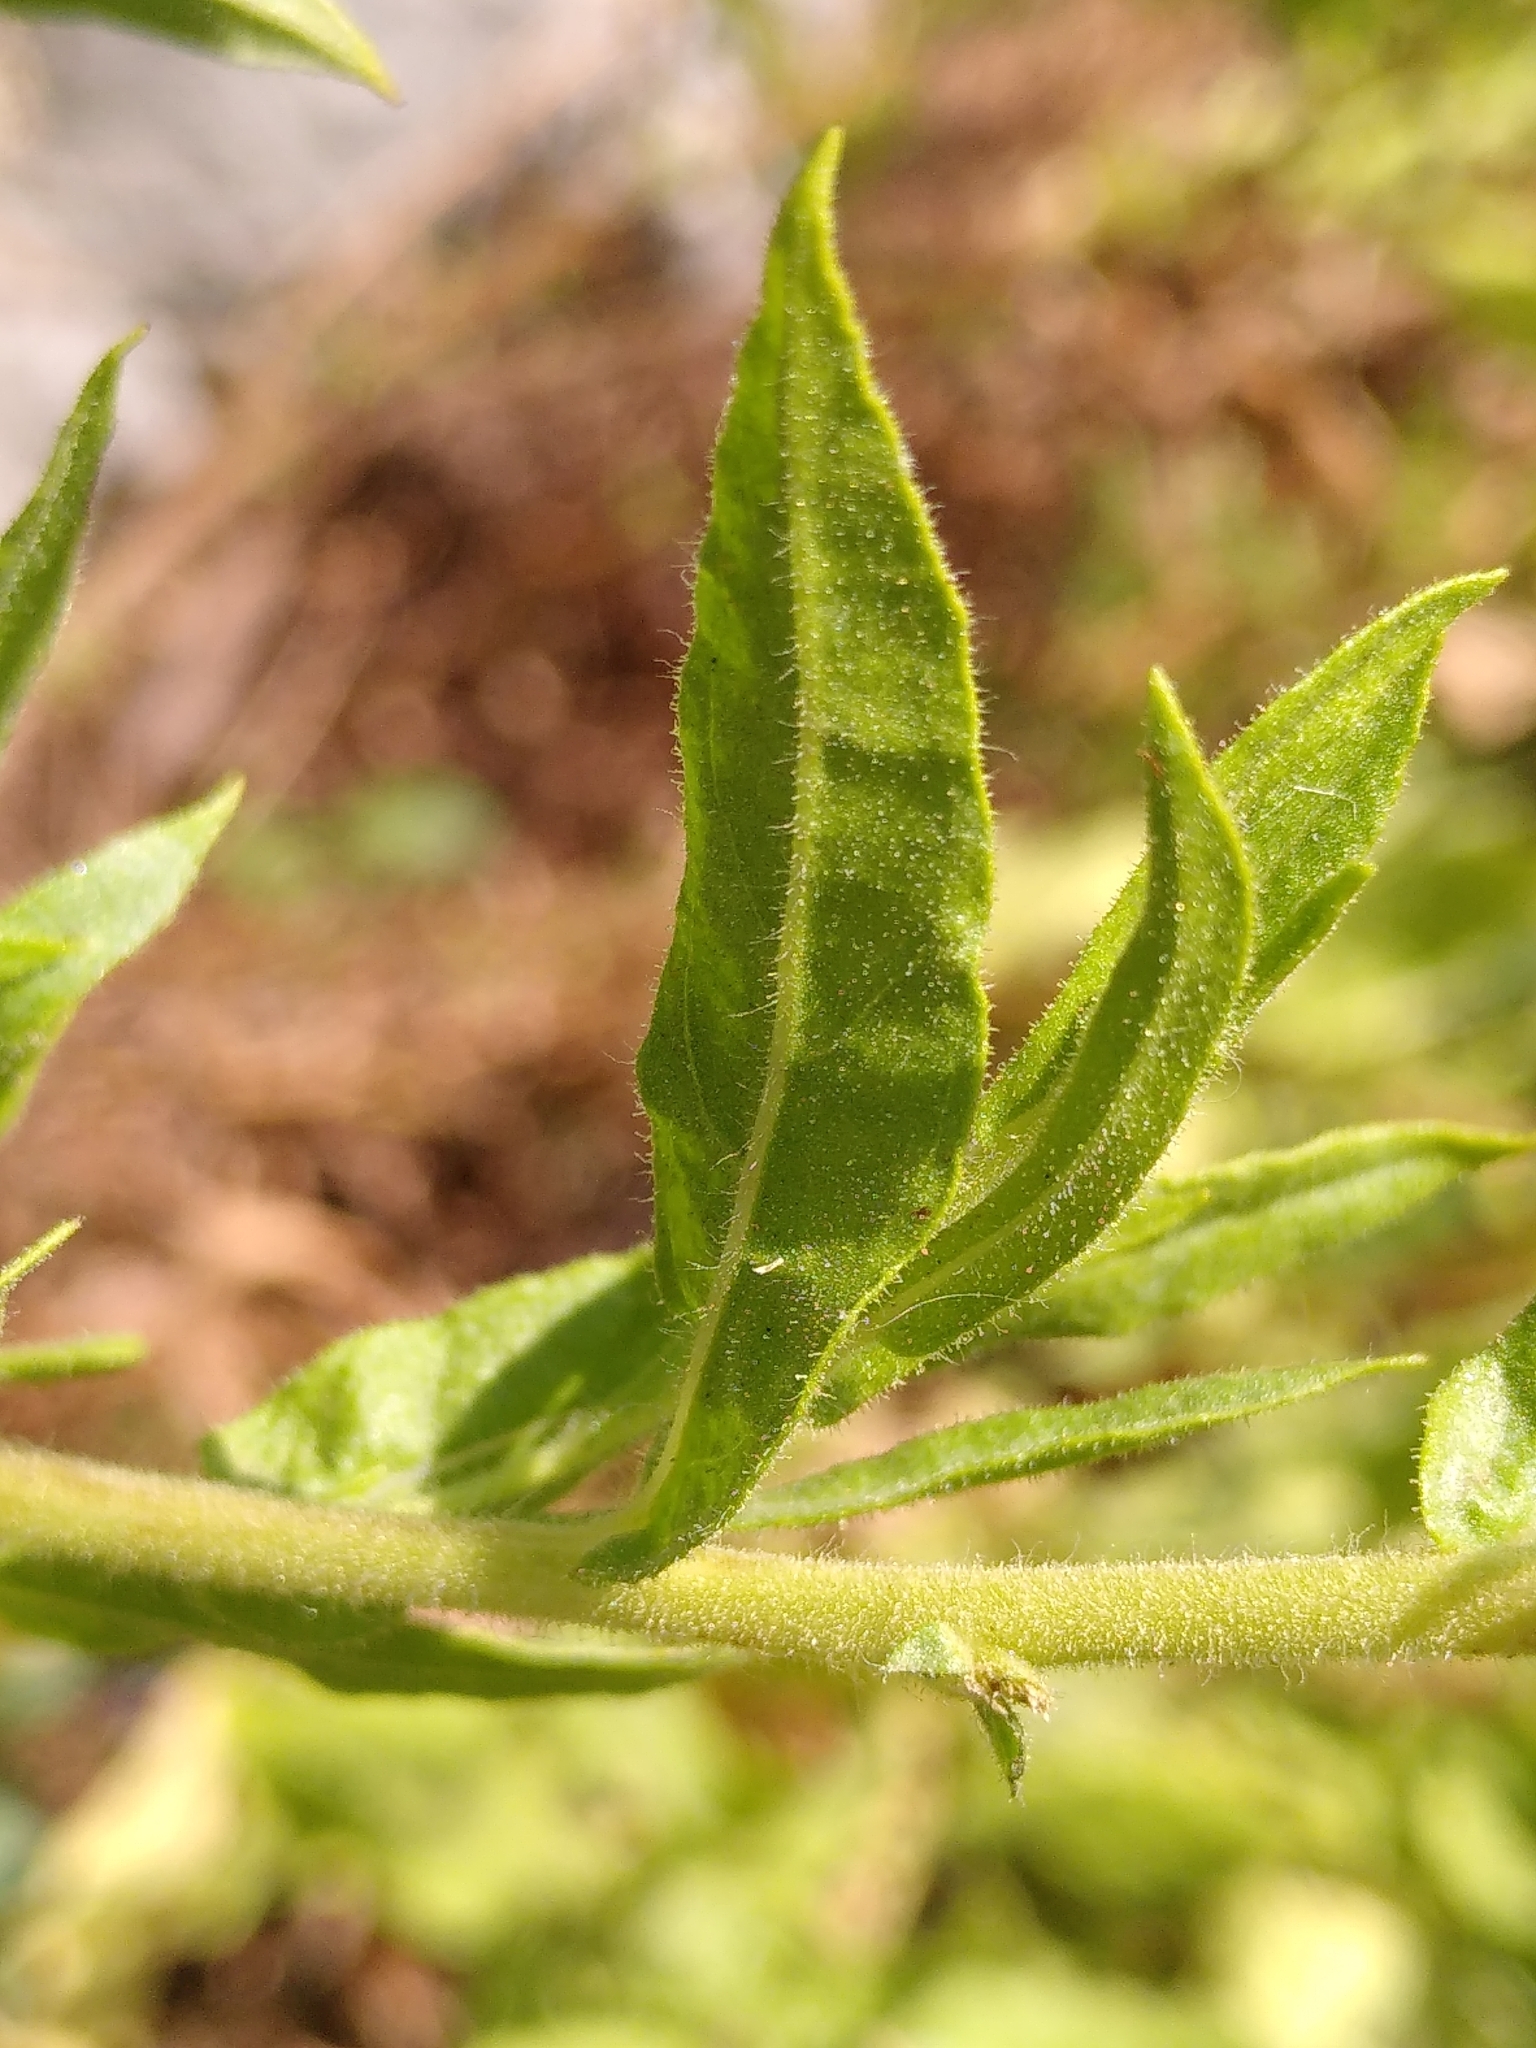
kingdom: Plantae
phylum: Tracheophyta
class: Magnoliopsida
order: Asterales
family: Asteraceae
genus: Dittrichia
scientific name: Dittrichia viscosa
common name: Woody fleabane
